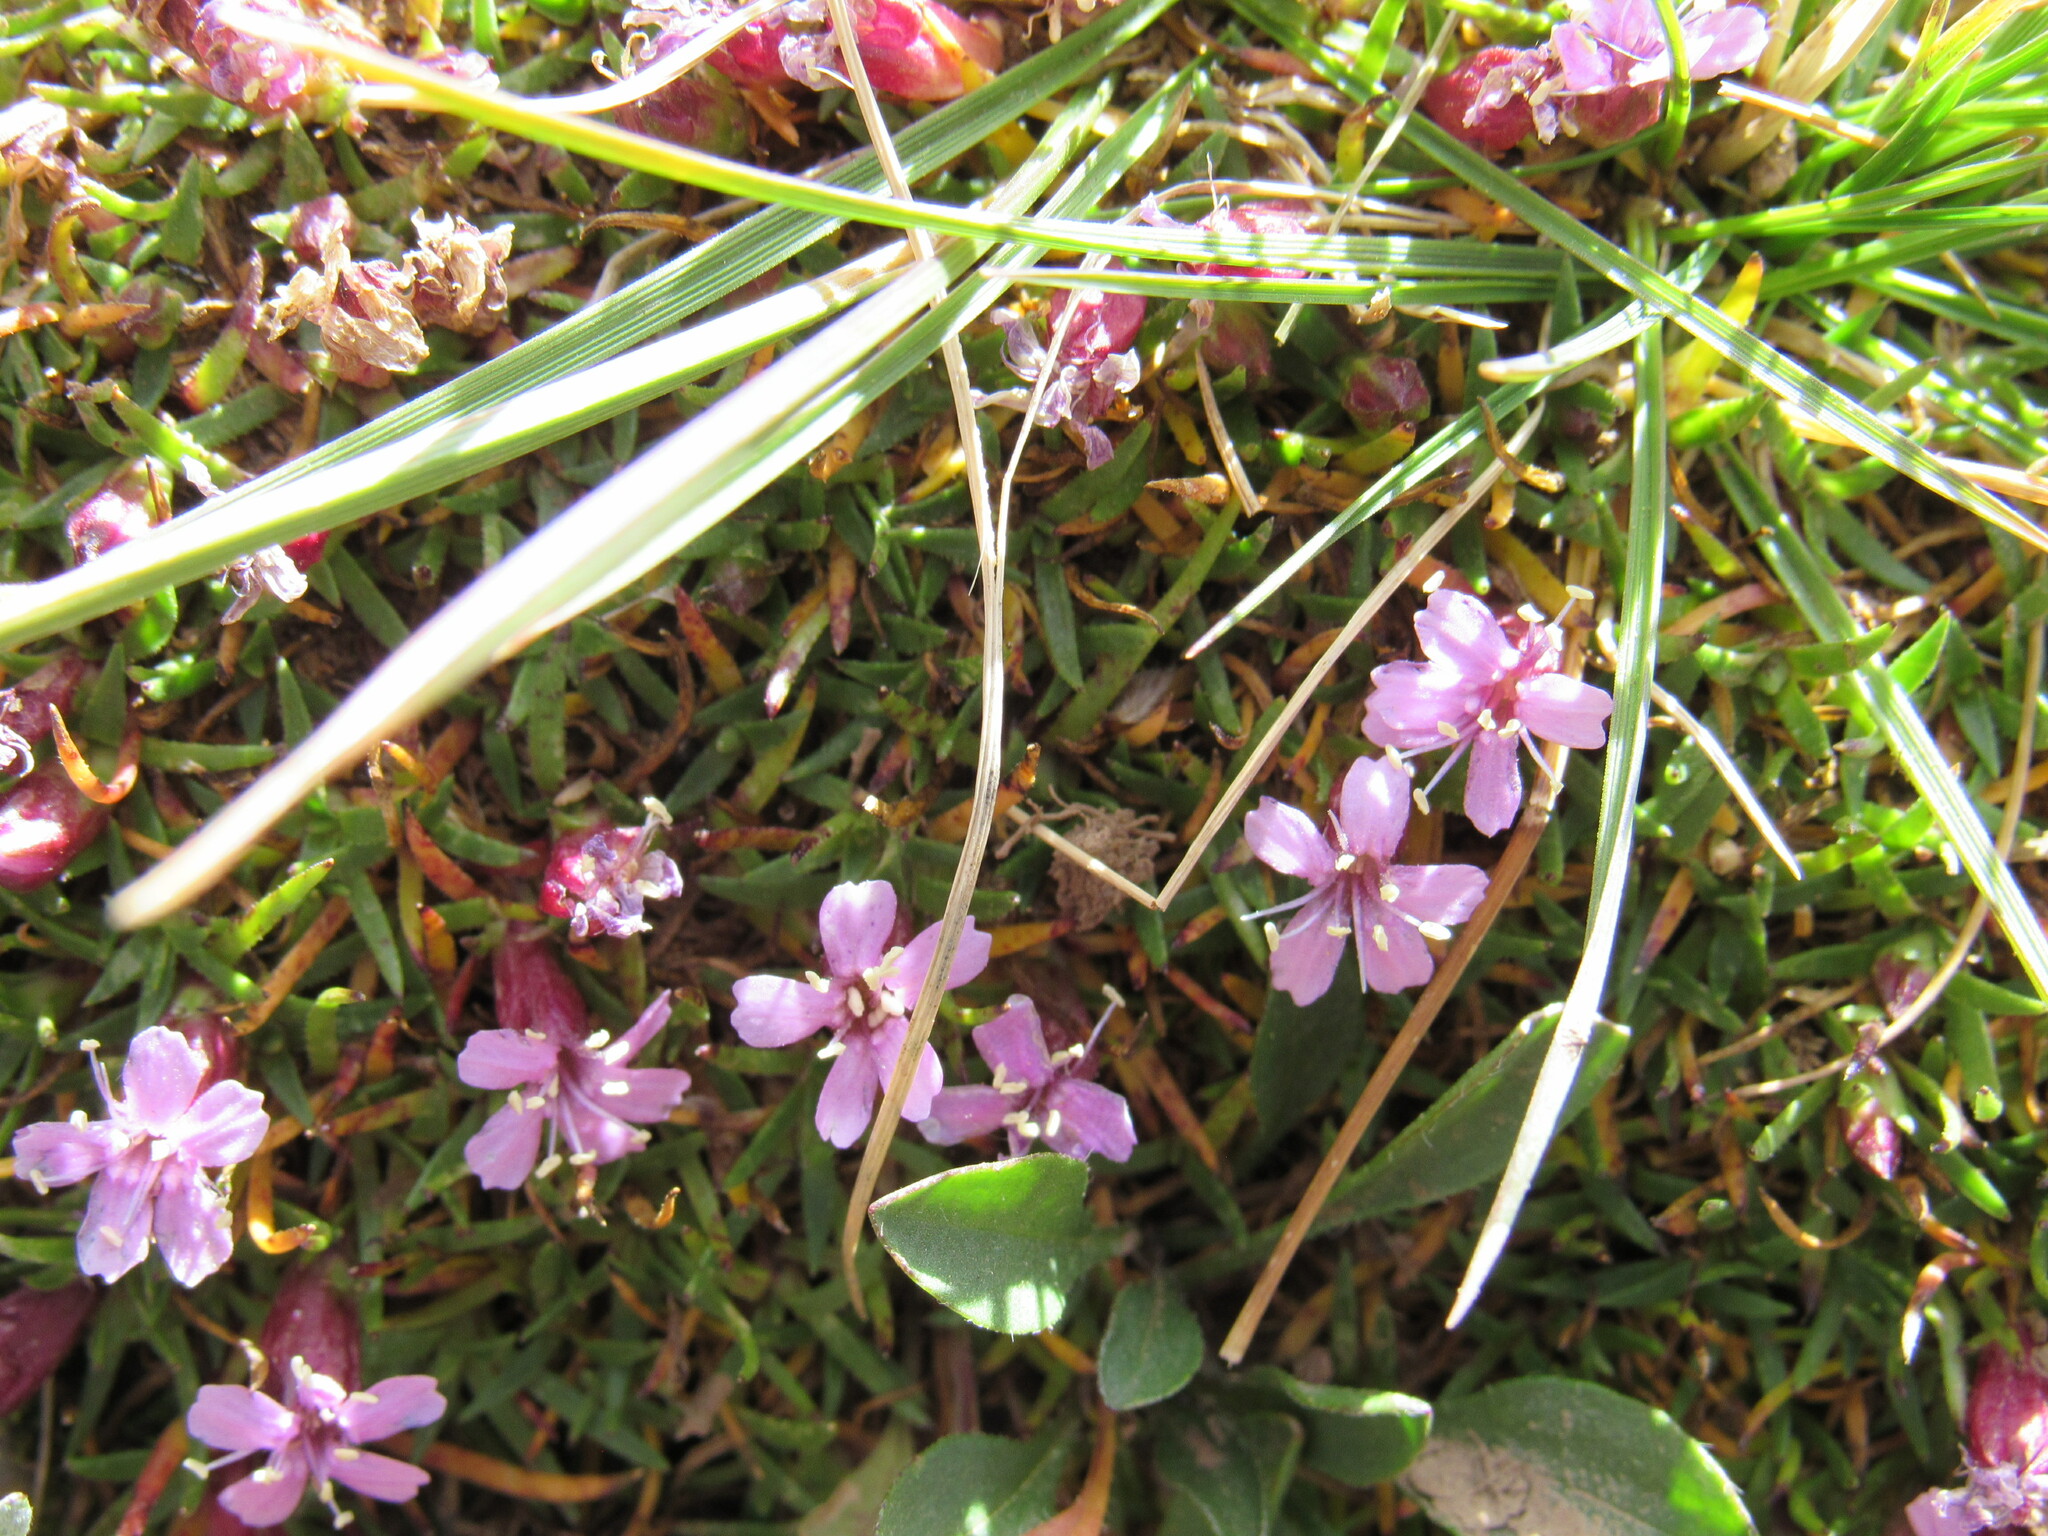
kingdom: Plantae
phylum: Tracheophyta
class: Magnoliopsida
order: Caryophyllales
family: Caryophyllaceae
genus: Silene
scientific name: Silene acaulis
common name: Moss campion
